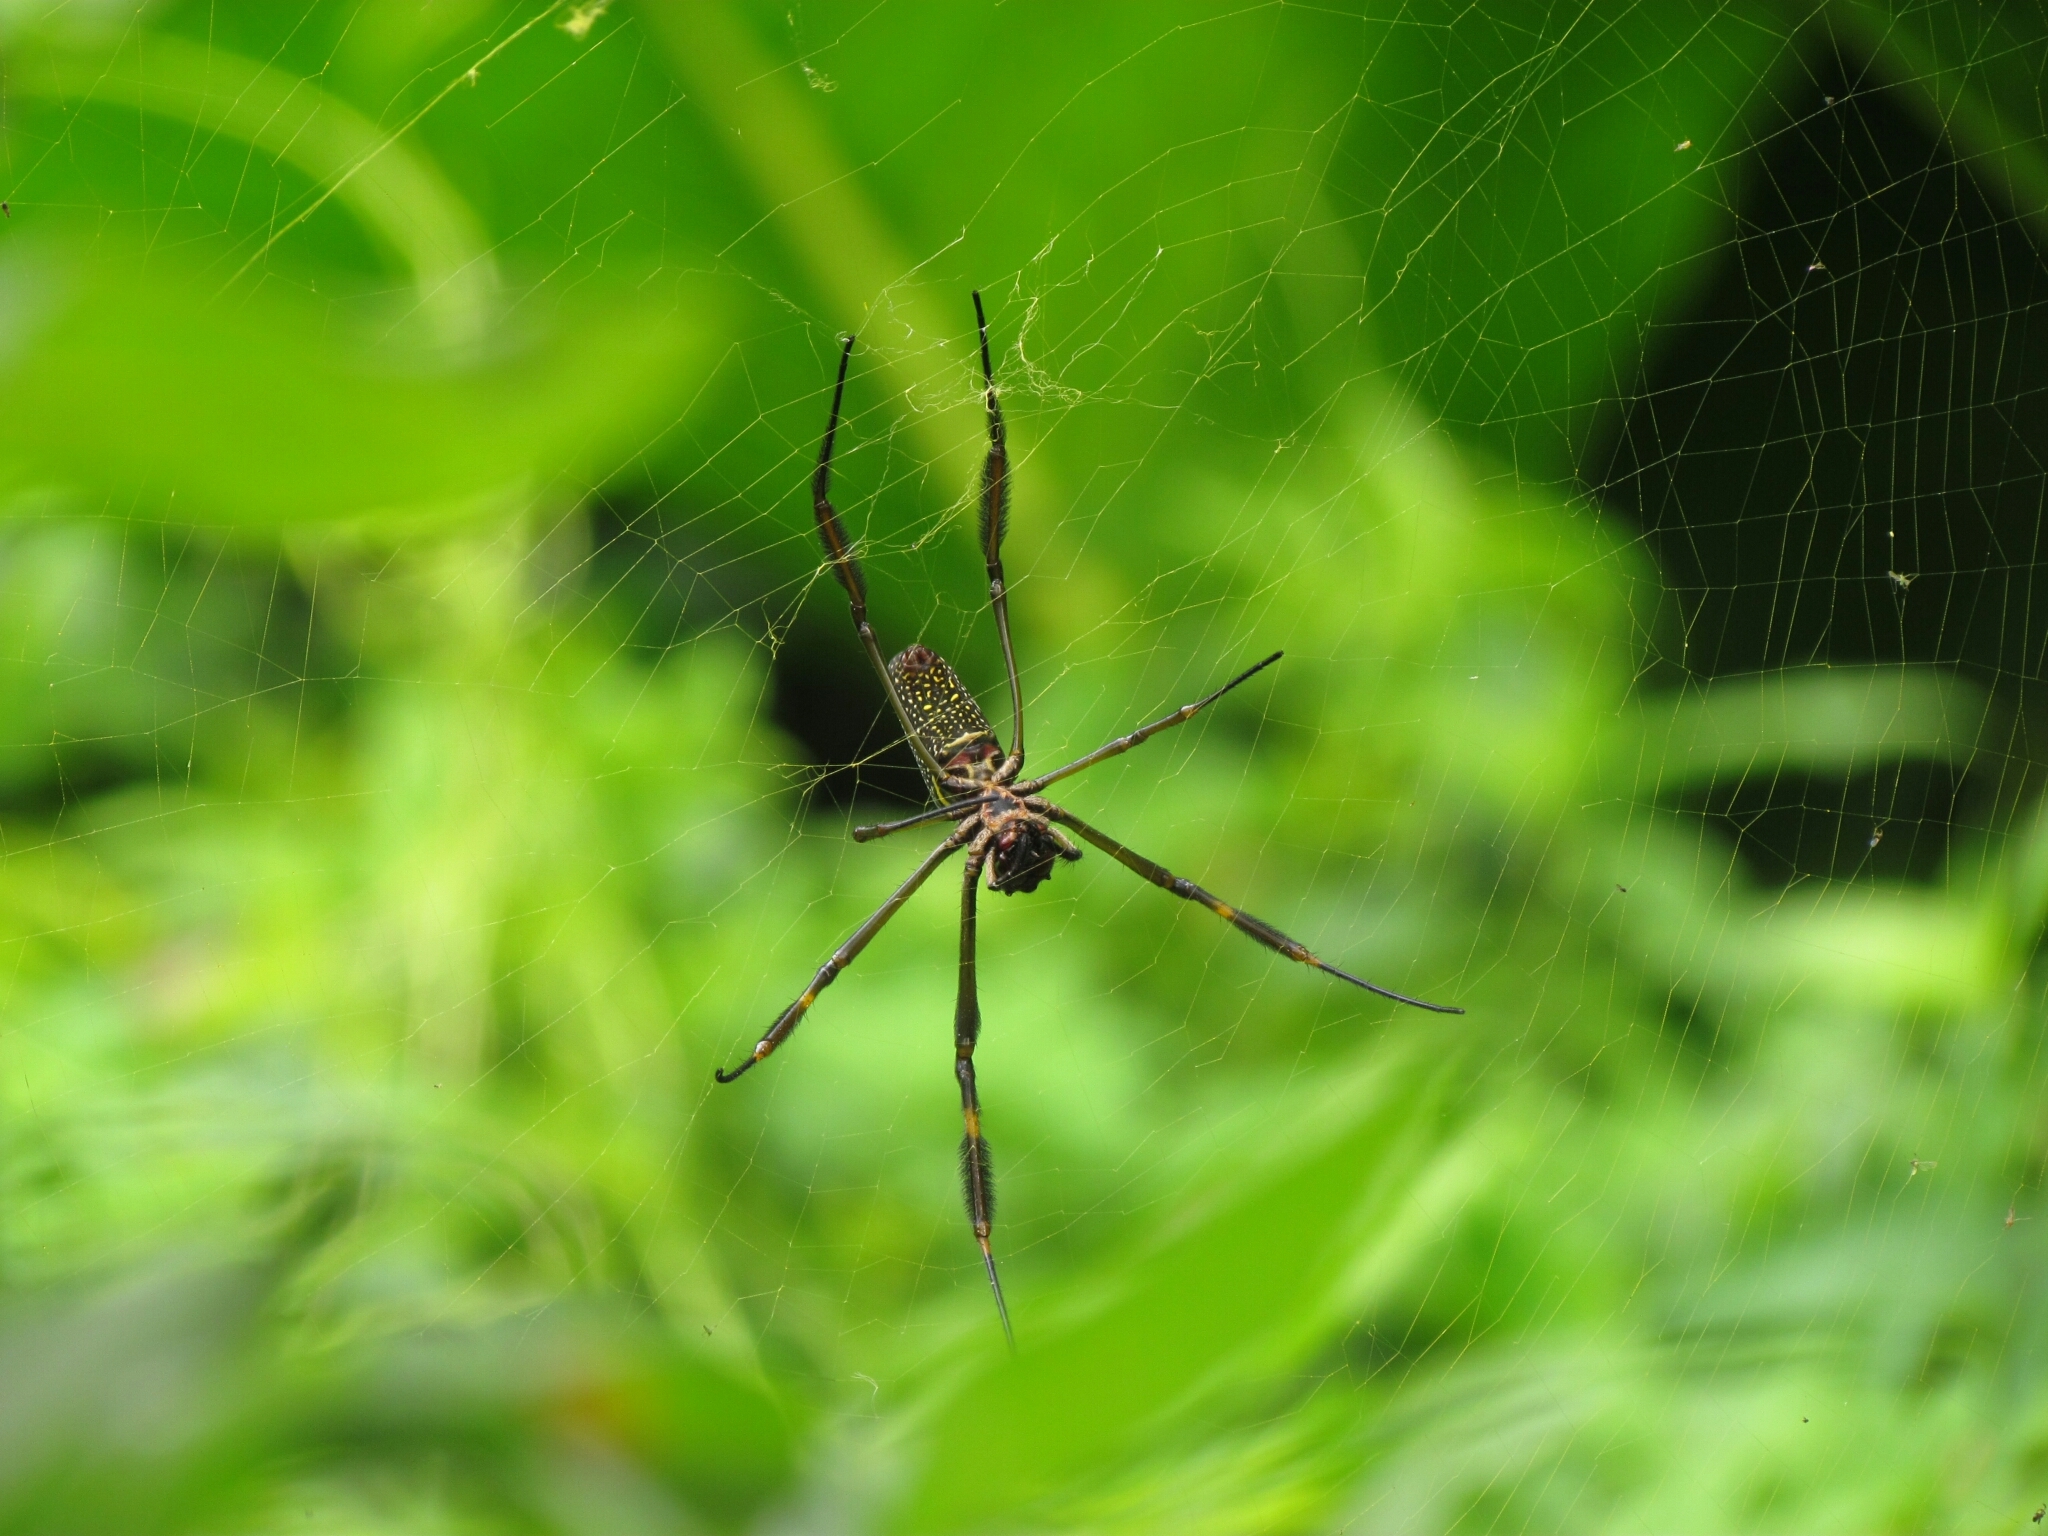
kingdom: Animalia
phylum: Arthropoda
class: Arachnida
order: Araneae
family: Araneidae
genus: Trichonephila
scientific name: Trichonephila clavipes
